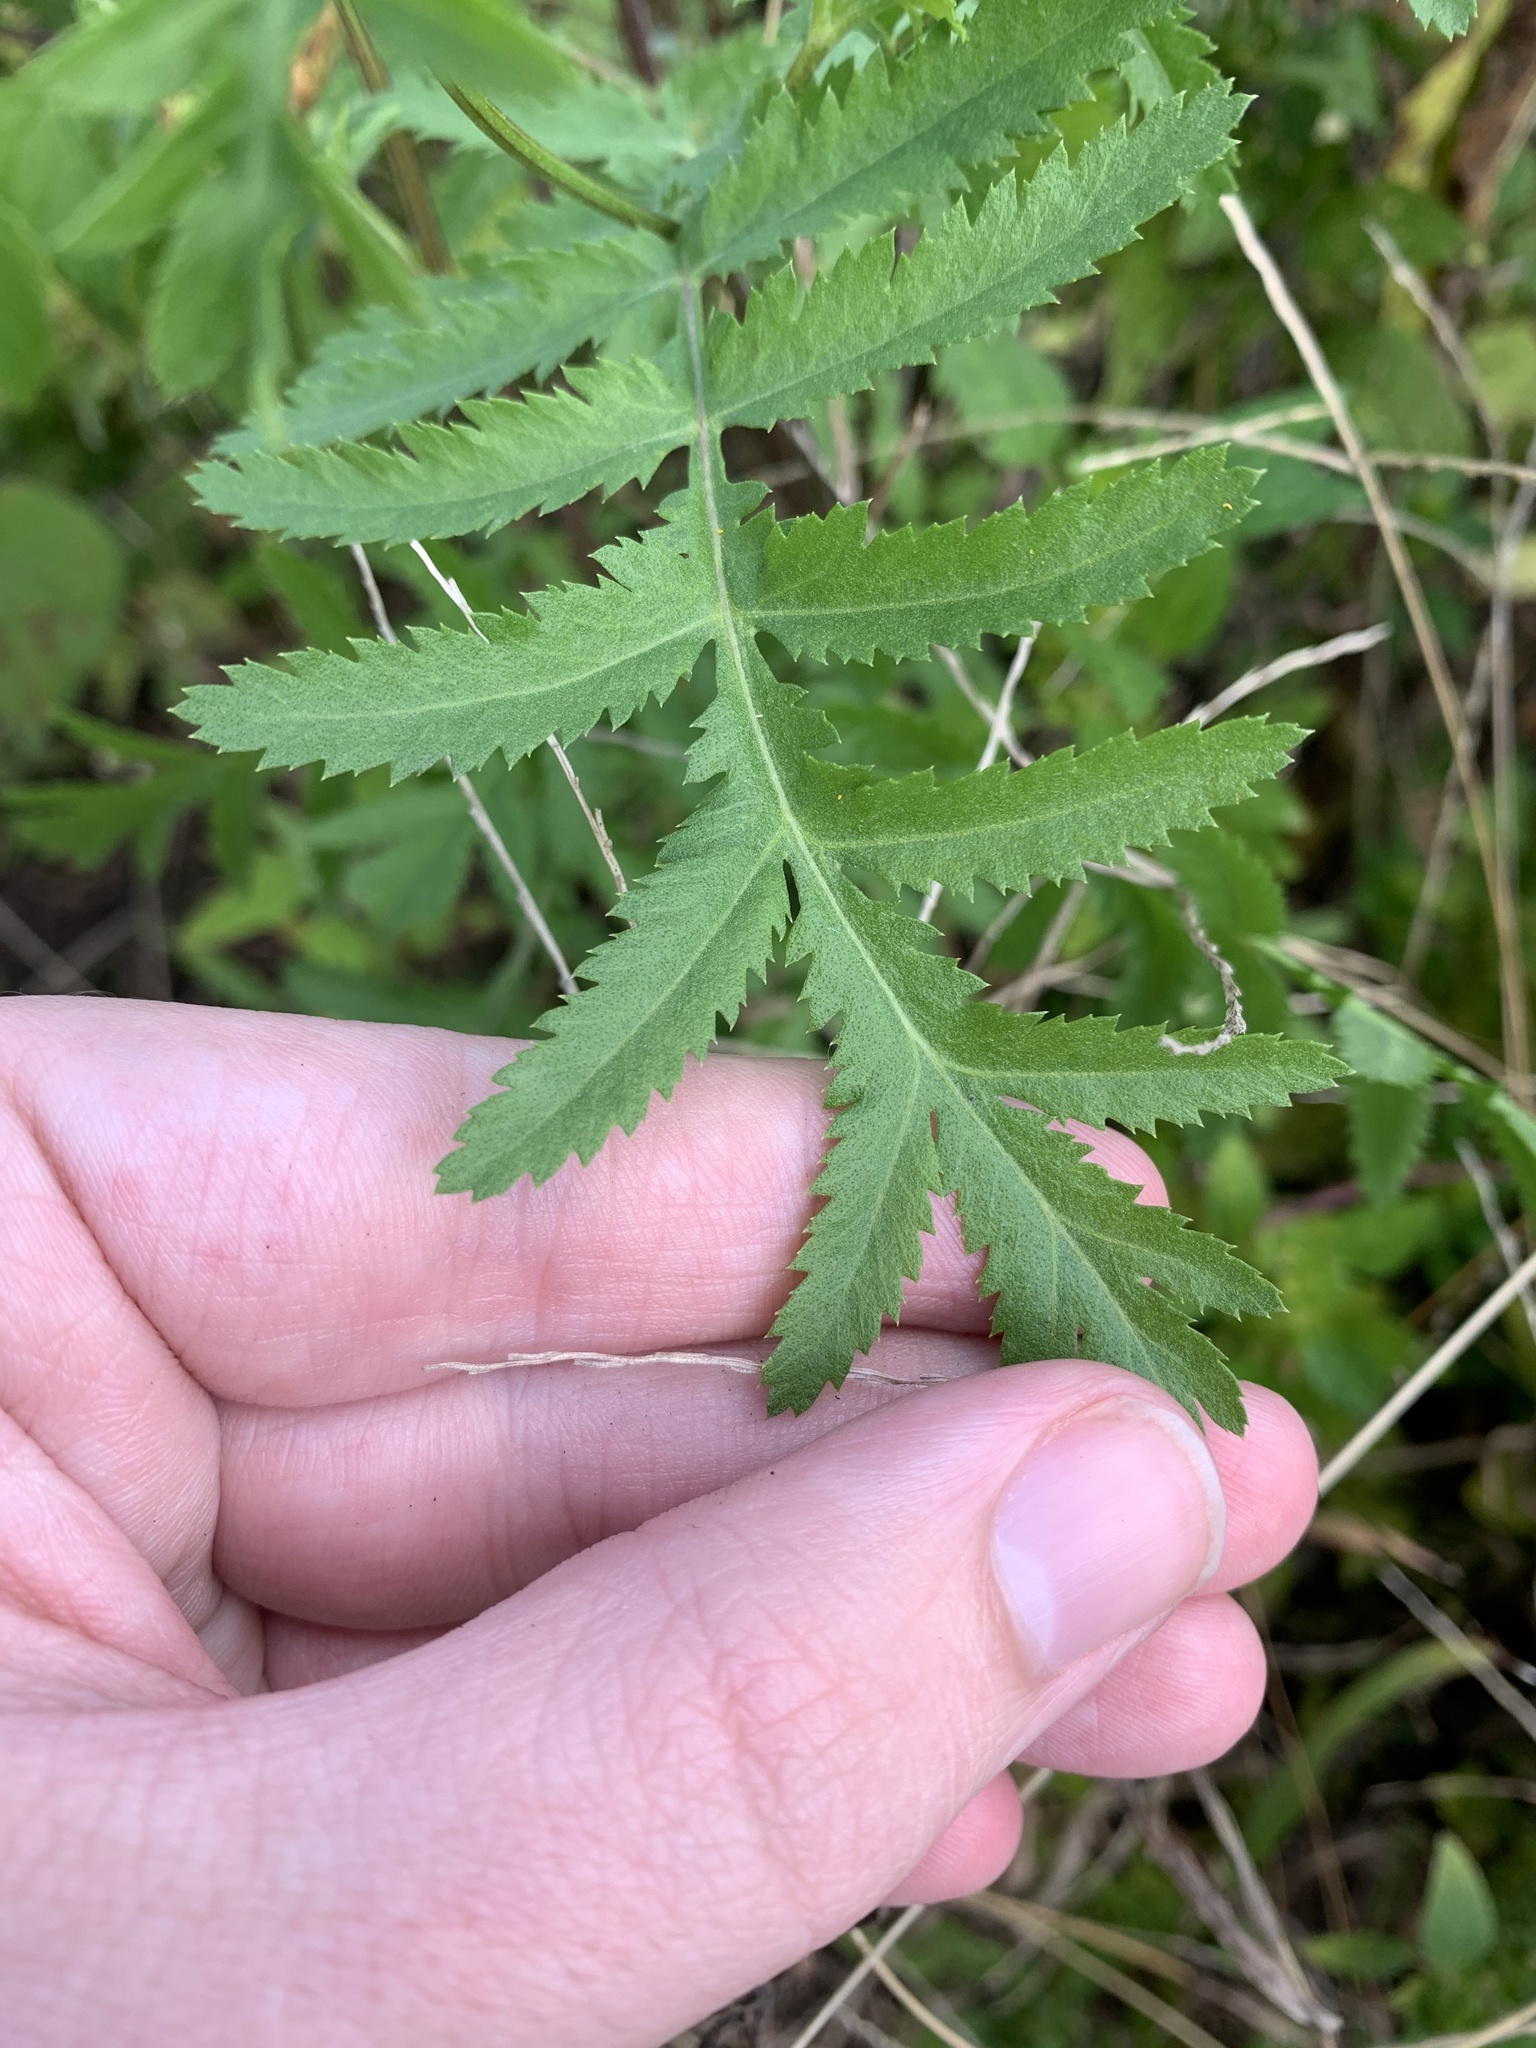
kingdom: Plantae
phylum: Tracheophyta
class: Magnoliopsida
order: Asterales
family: Asteraceae
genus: Tanacetum
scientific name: Tanacetum vulgare
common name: Common tansy
